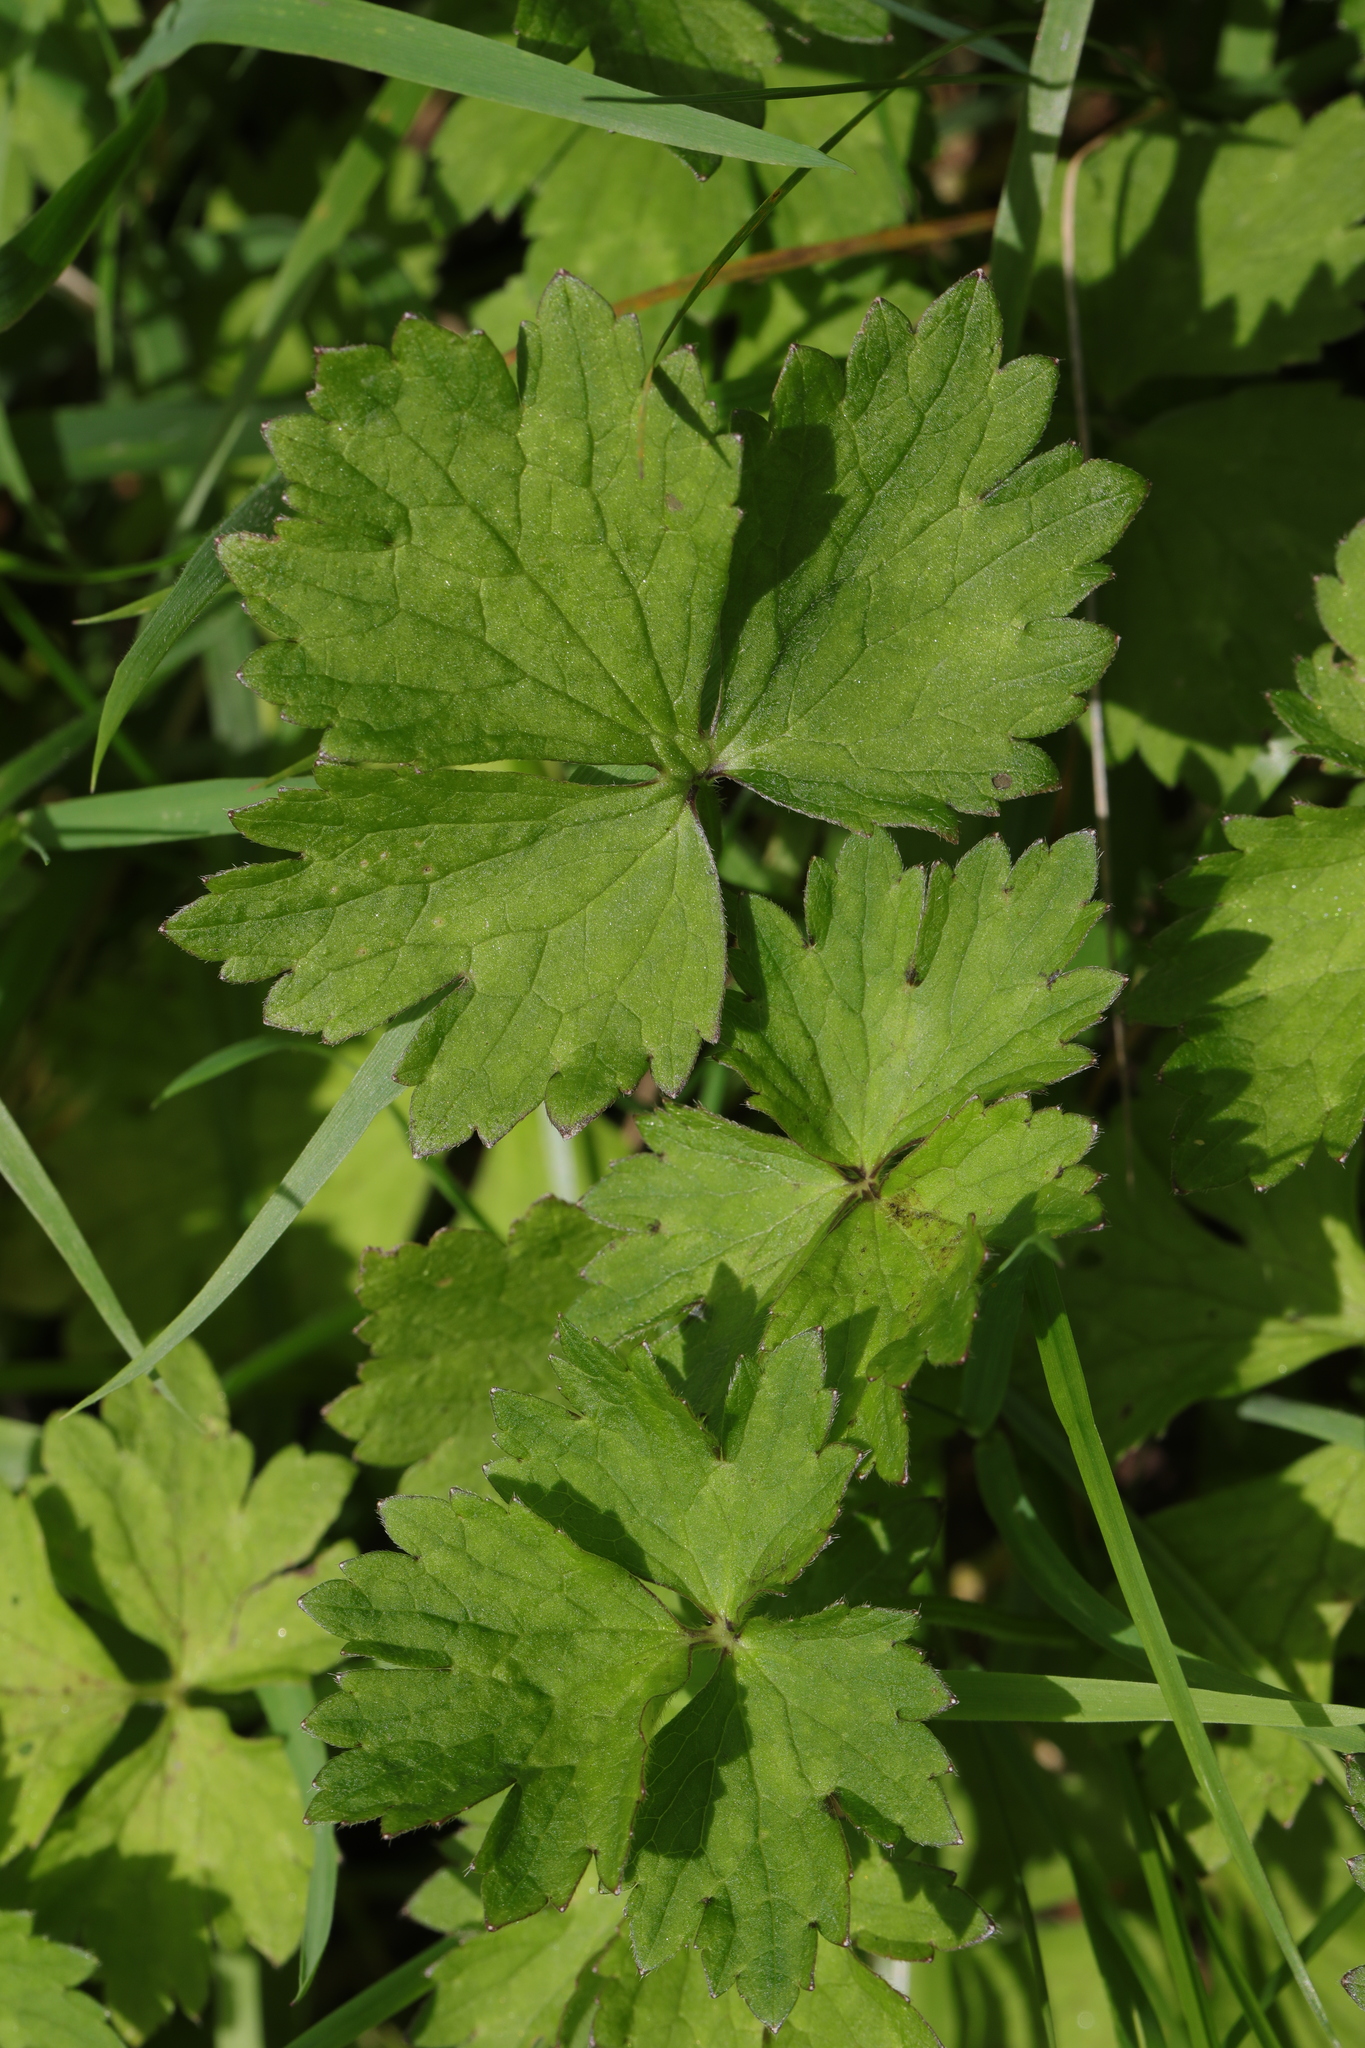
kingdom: Plantae
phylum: Tracheophyta
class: Magnoliopsida
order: Ranunculales
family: Ranunculaceae
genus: Ranunculus
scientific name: Ranunculus repens
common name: Creeping buttercup
